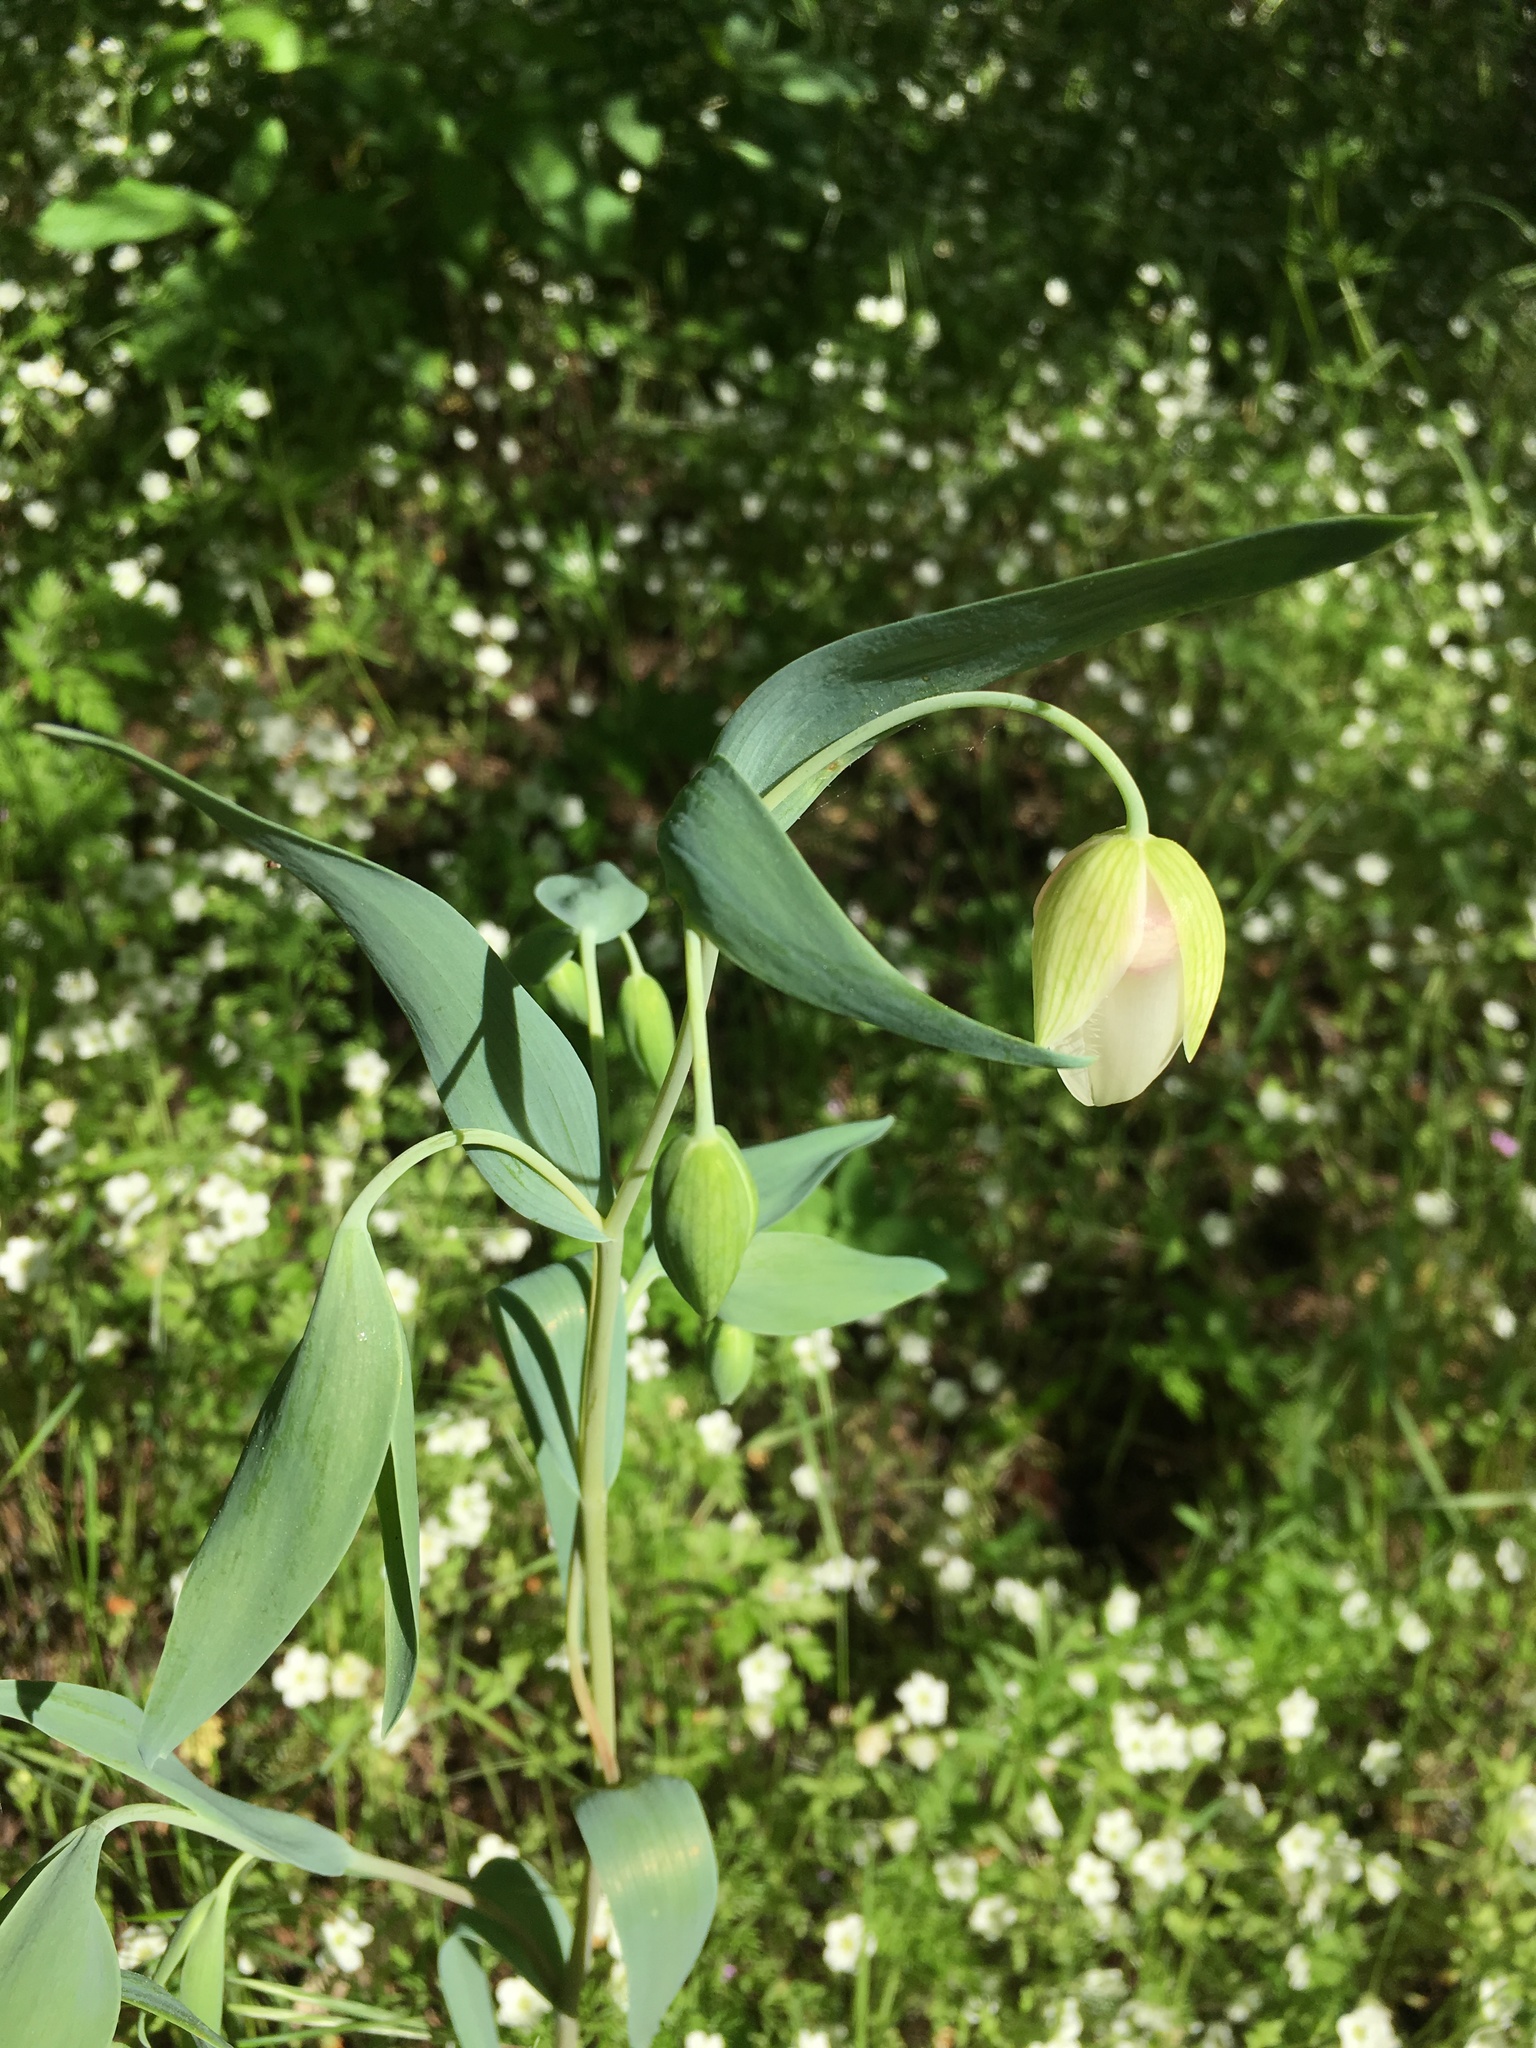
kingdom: Plantae
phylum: Tracheophyta
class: Liliopsida
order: Liliales
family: Liliaceae
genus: Calochortus
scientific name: Calochortus albus
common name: Fairy-lantern
